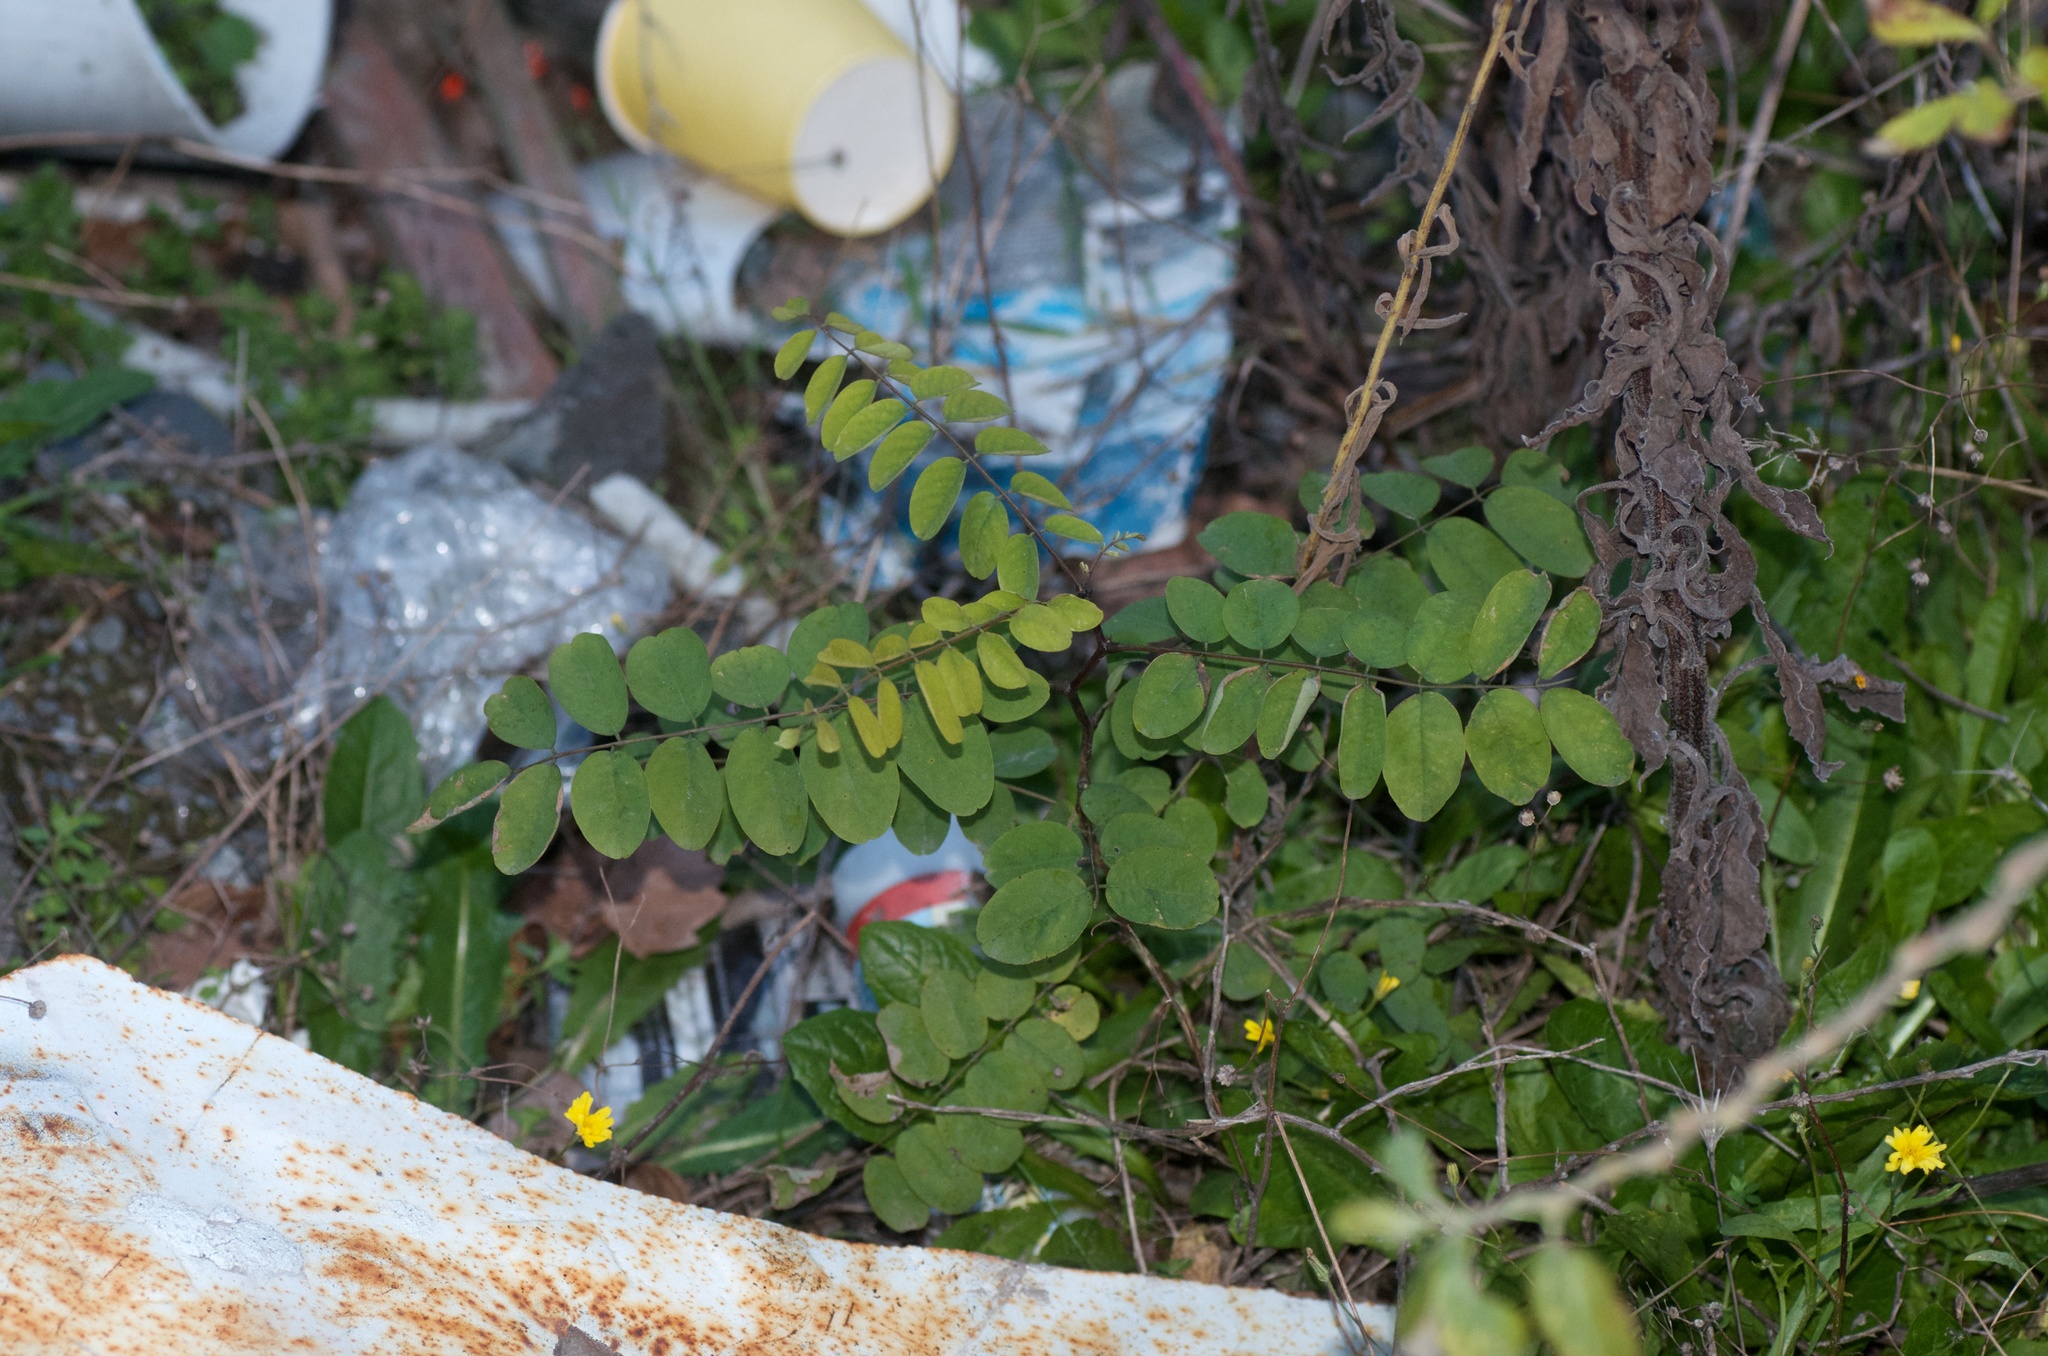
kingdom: Plantae
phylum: Tracheophyta
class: Magnoliopsida
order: Fabales
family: Fabaceae
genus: Robinia
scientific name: Robinia pseudoacacia
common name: Black locust
